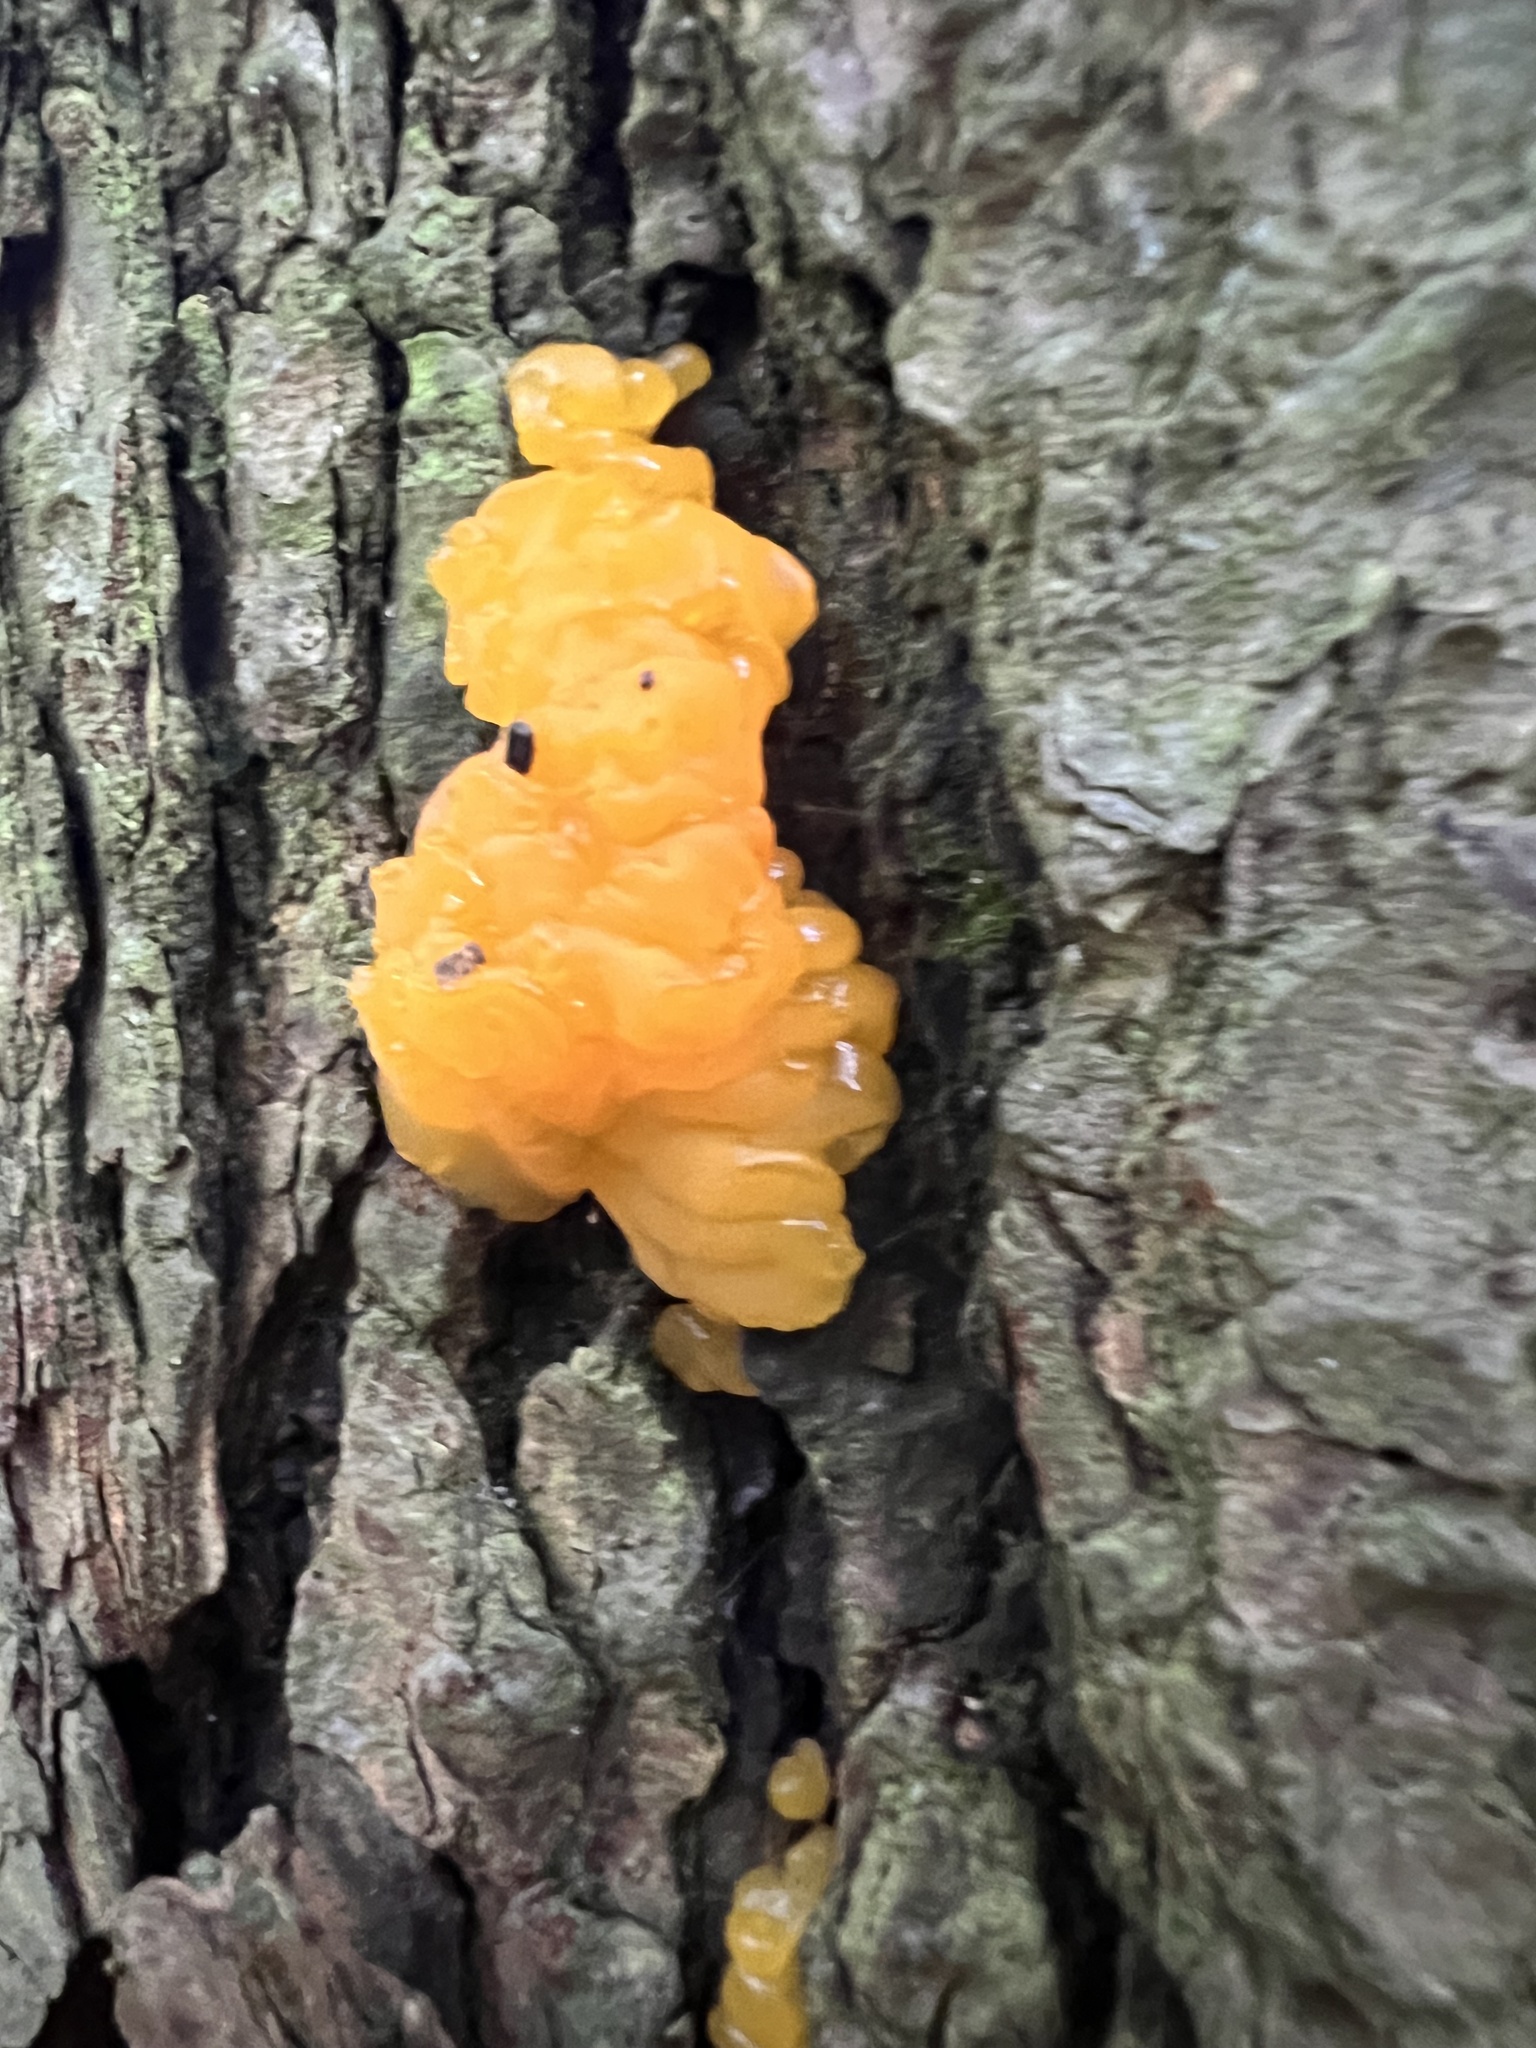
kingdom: Fungi
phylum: Basidiomycota
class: Dacrymycetes
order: Dacrymycetales
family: Dacrymycetaceae
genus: Dacrymyces
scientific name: Dacrymyces chrysospermus
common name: Orange jelly spot
